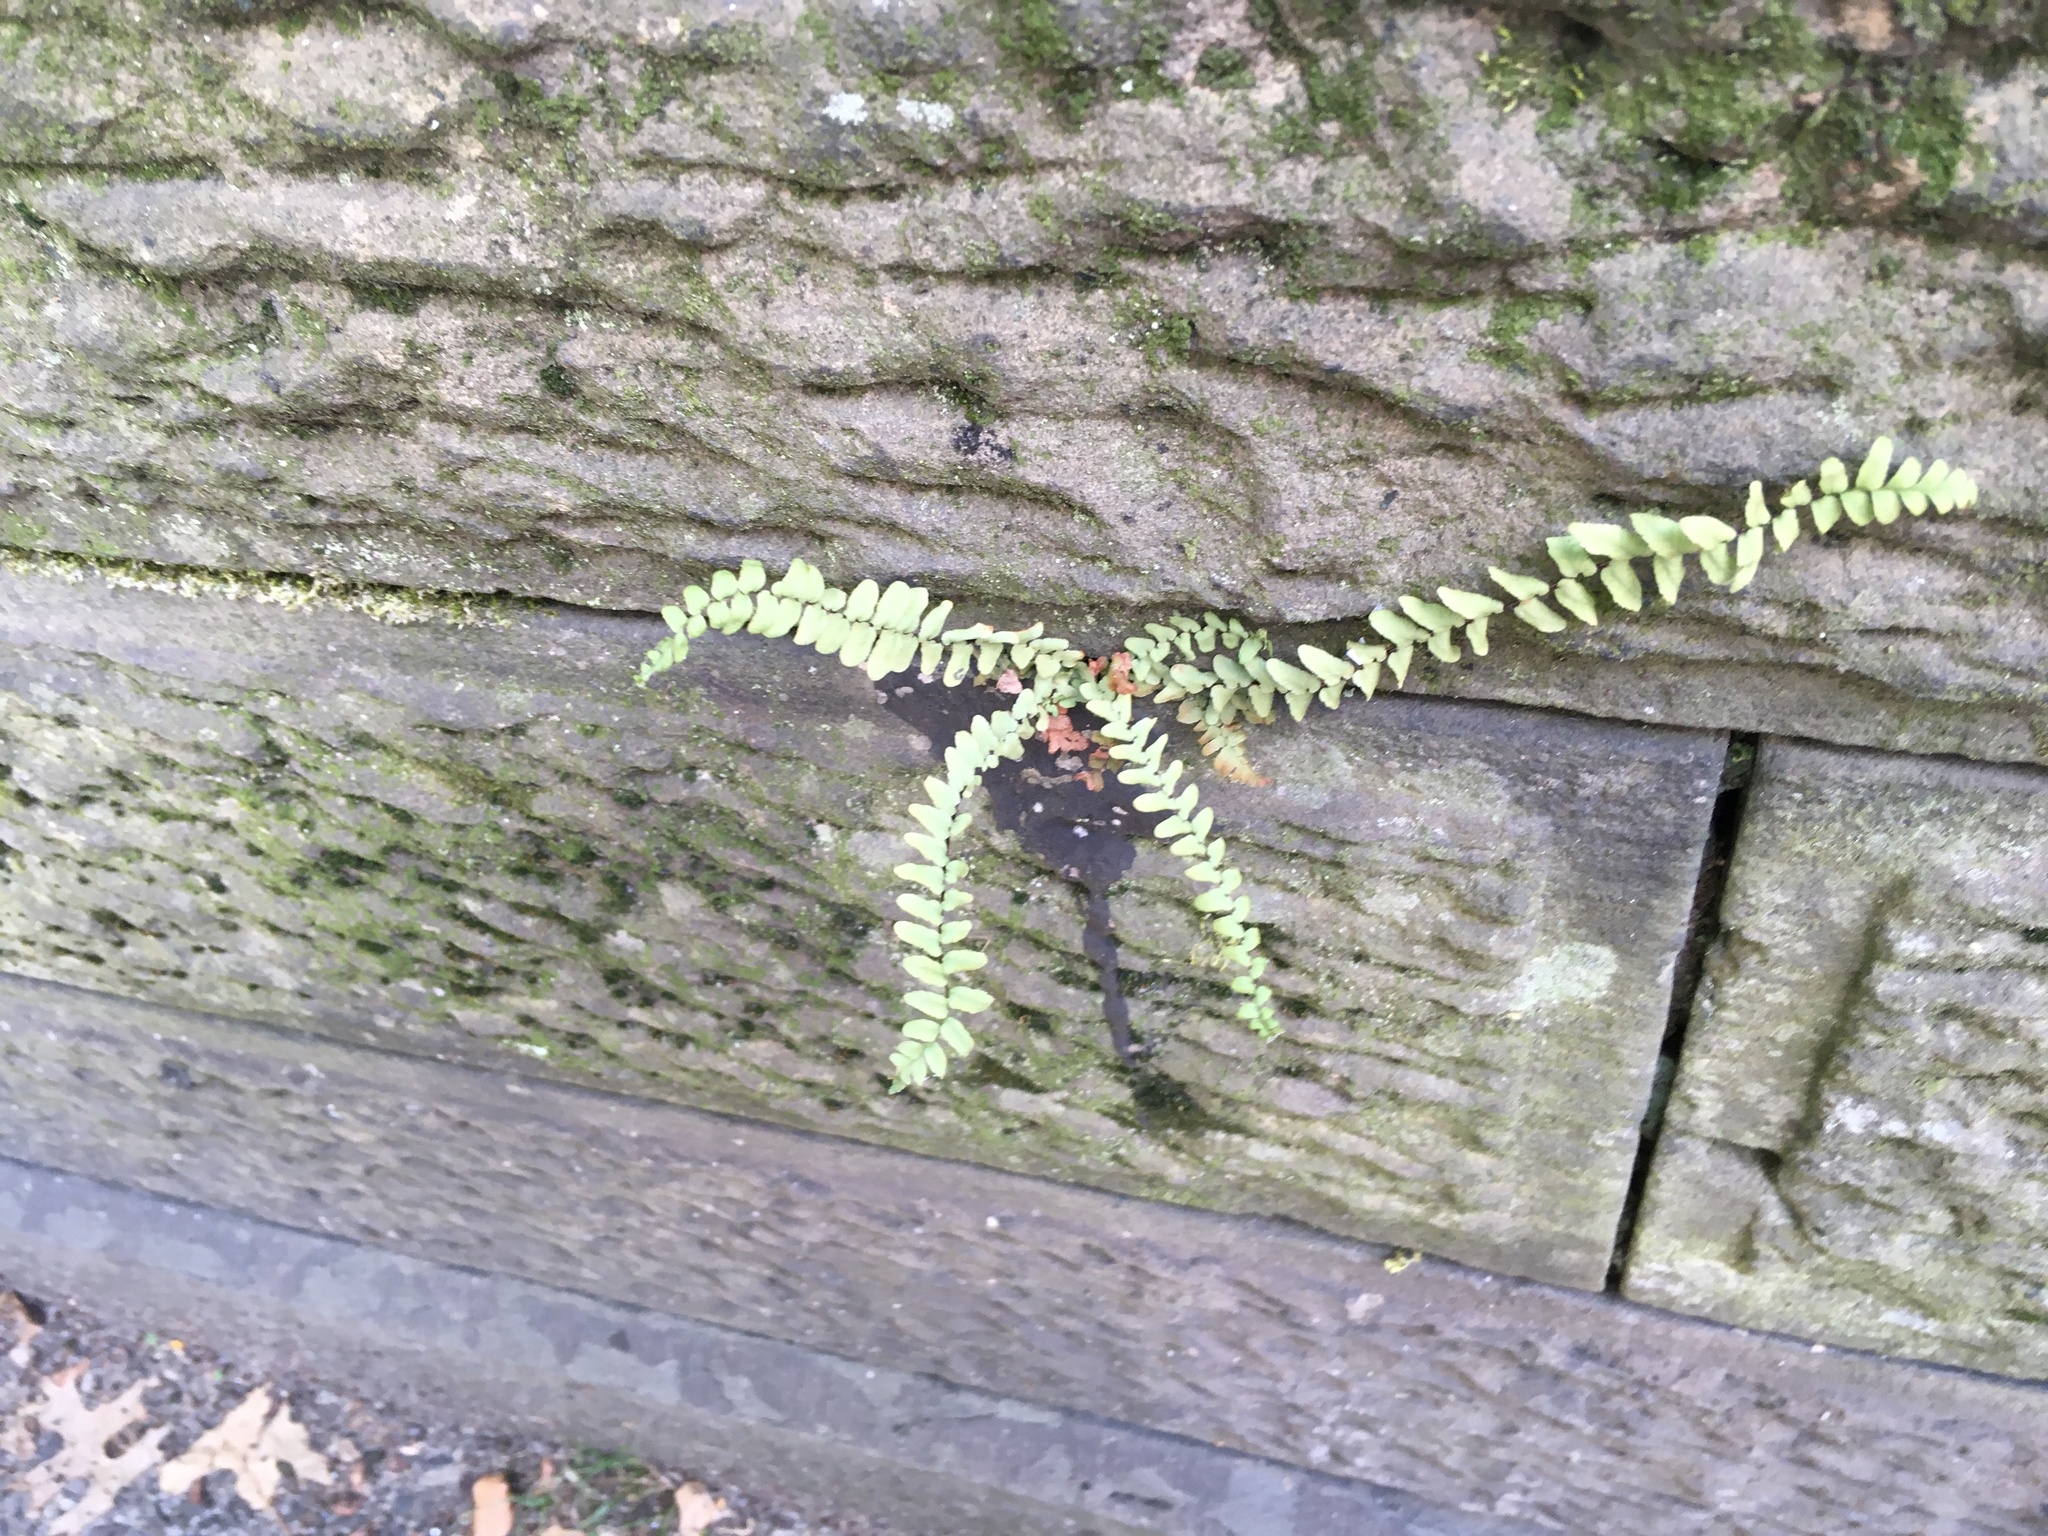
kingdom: Plantae
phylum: Tracheophyta
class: Polypodiopsida
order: Polypodiales
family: Aspleniaceae
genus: Asplenium
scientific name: Asplenium platyneuron
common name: Ebony spleenwort
